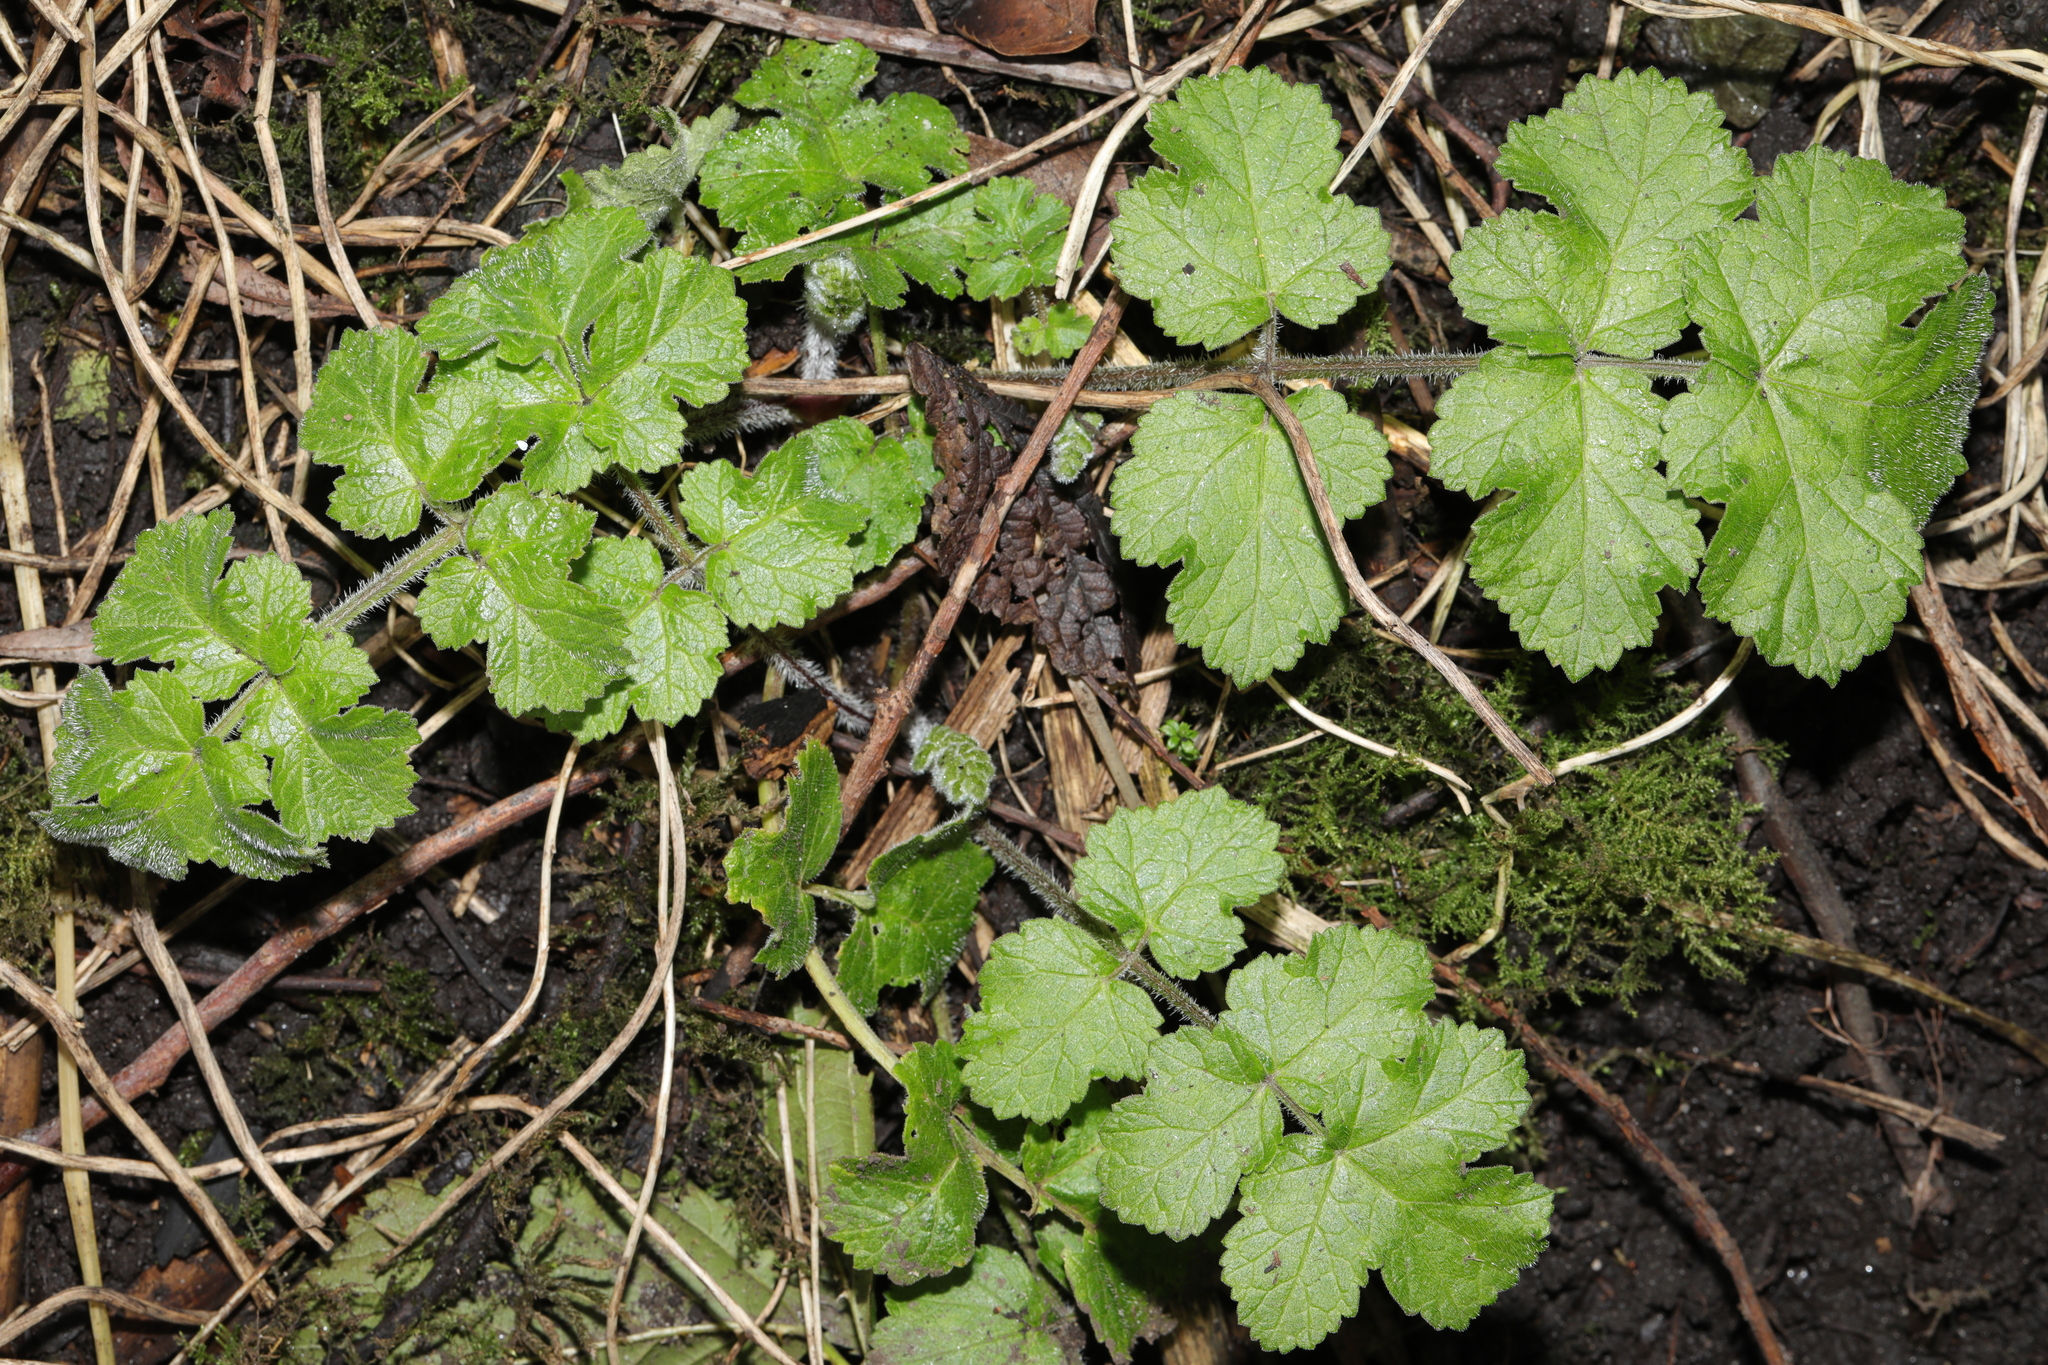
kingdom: Plantae
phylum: Tracheophyta
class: Magnoliopsida
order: Apiales
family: Apiaceae
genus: Heracleum
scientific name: Heracleum sphondylium
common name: Hogweed
